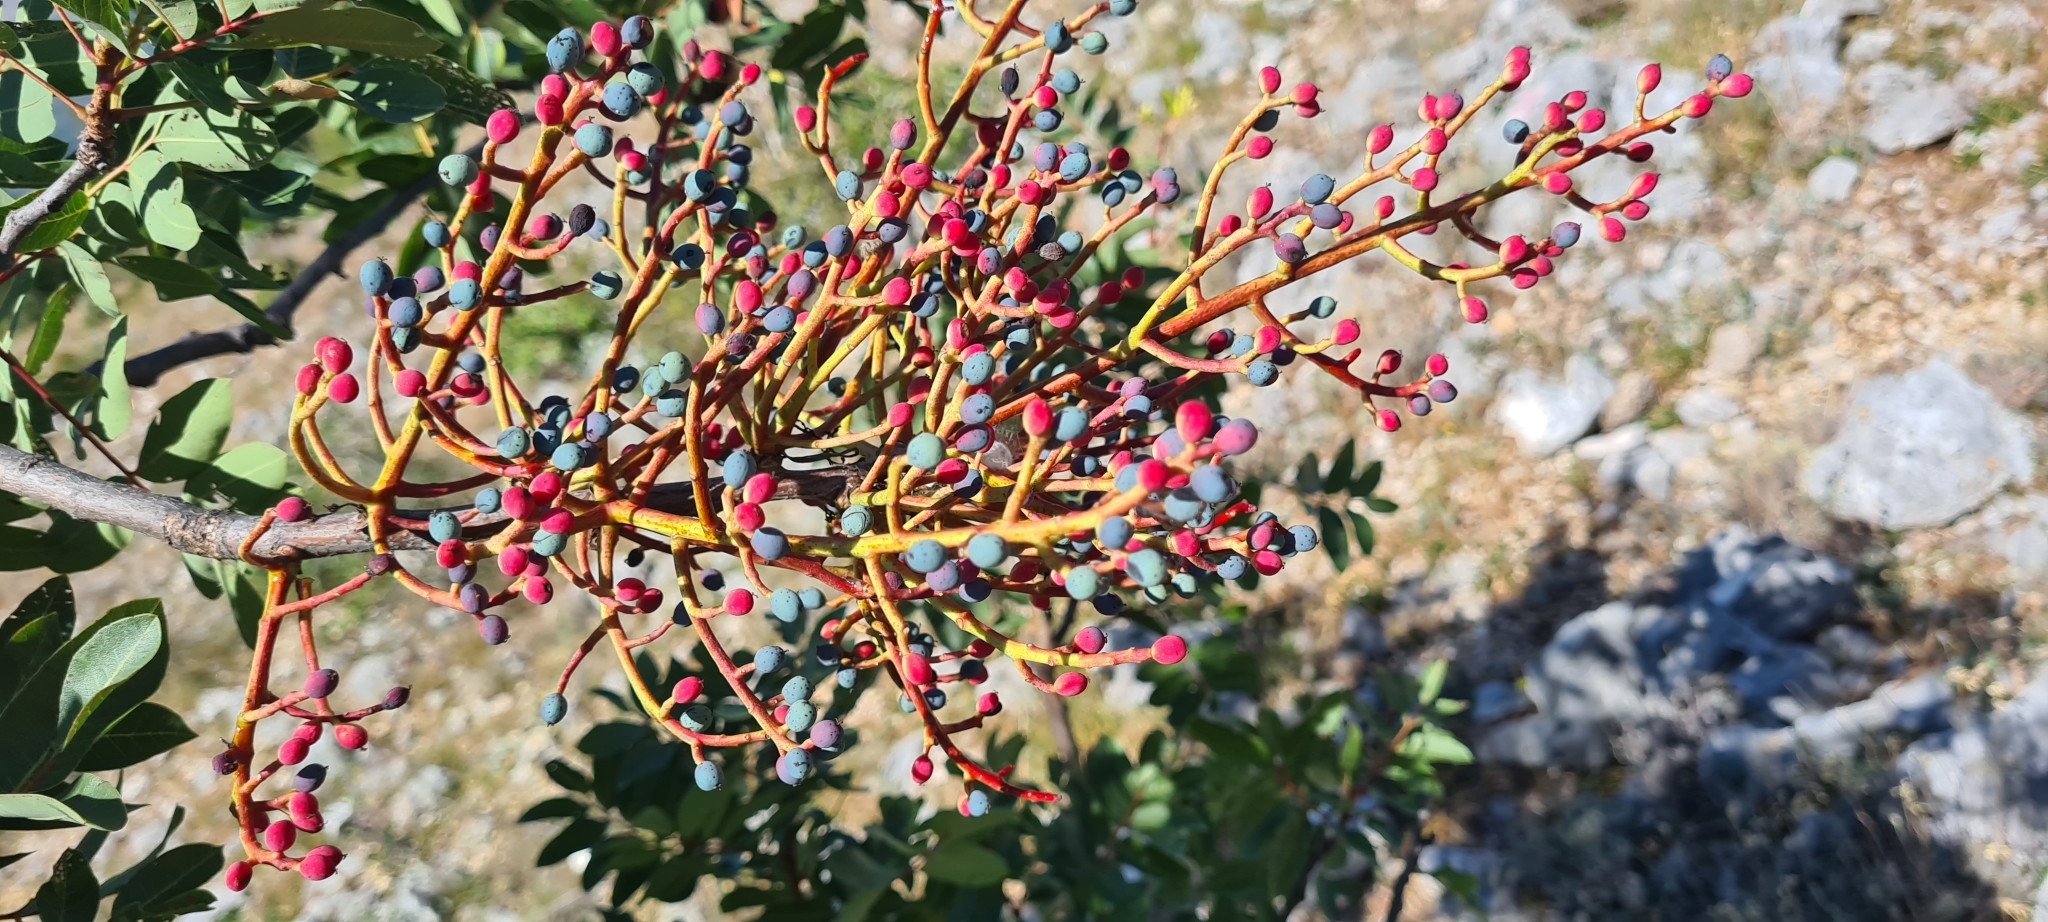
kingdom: Plantae
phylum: Tracheophyta
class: Magnoliopsida
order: Sapindales
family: Anacardiaceae
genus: Pistacia
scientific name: Pistacia terebinthus
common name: Terebinth
